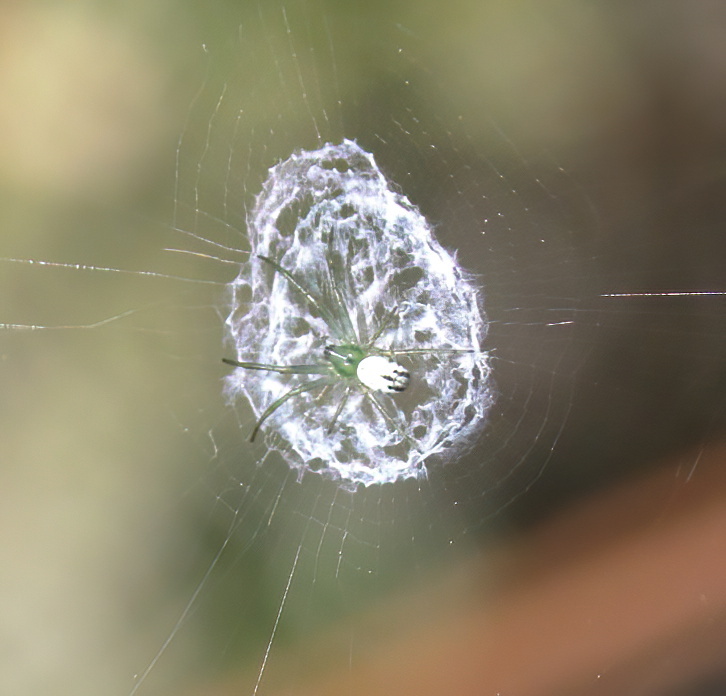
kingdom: Animalia
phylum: Arthropoda
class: Arachnida
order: Araneae
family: Araneidae
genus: Mangora
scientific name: Mangora gibberosa
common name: Lined orbweaver
